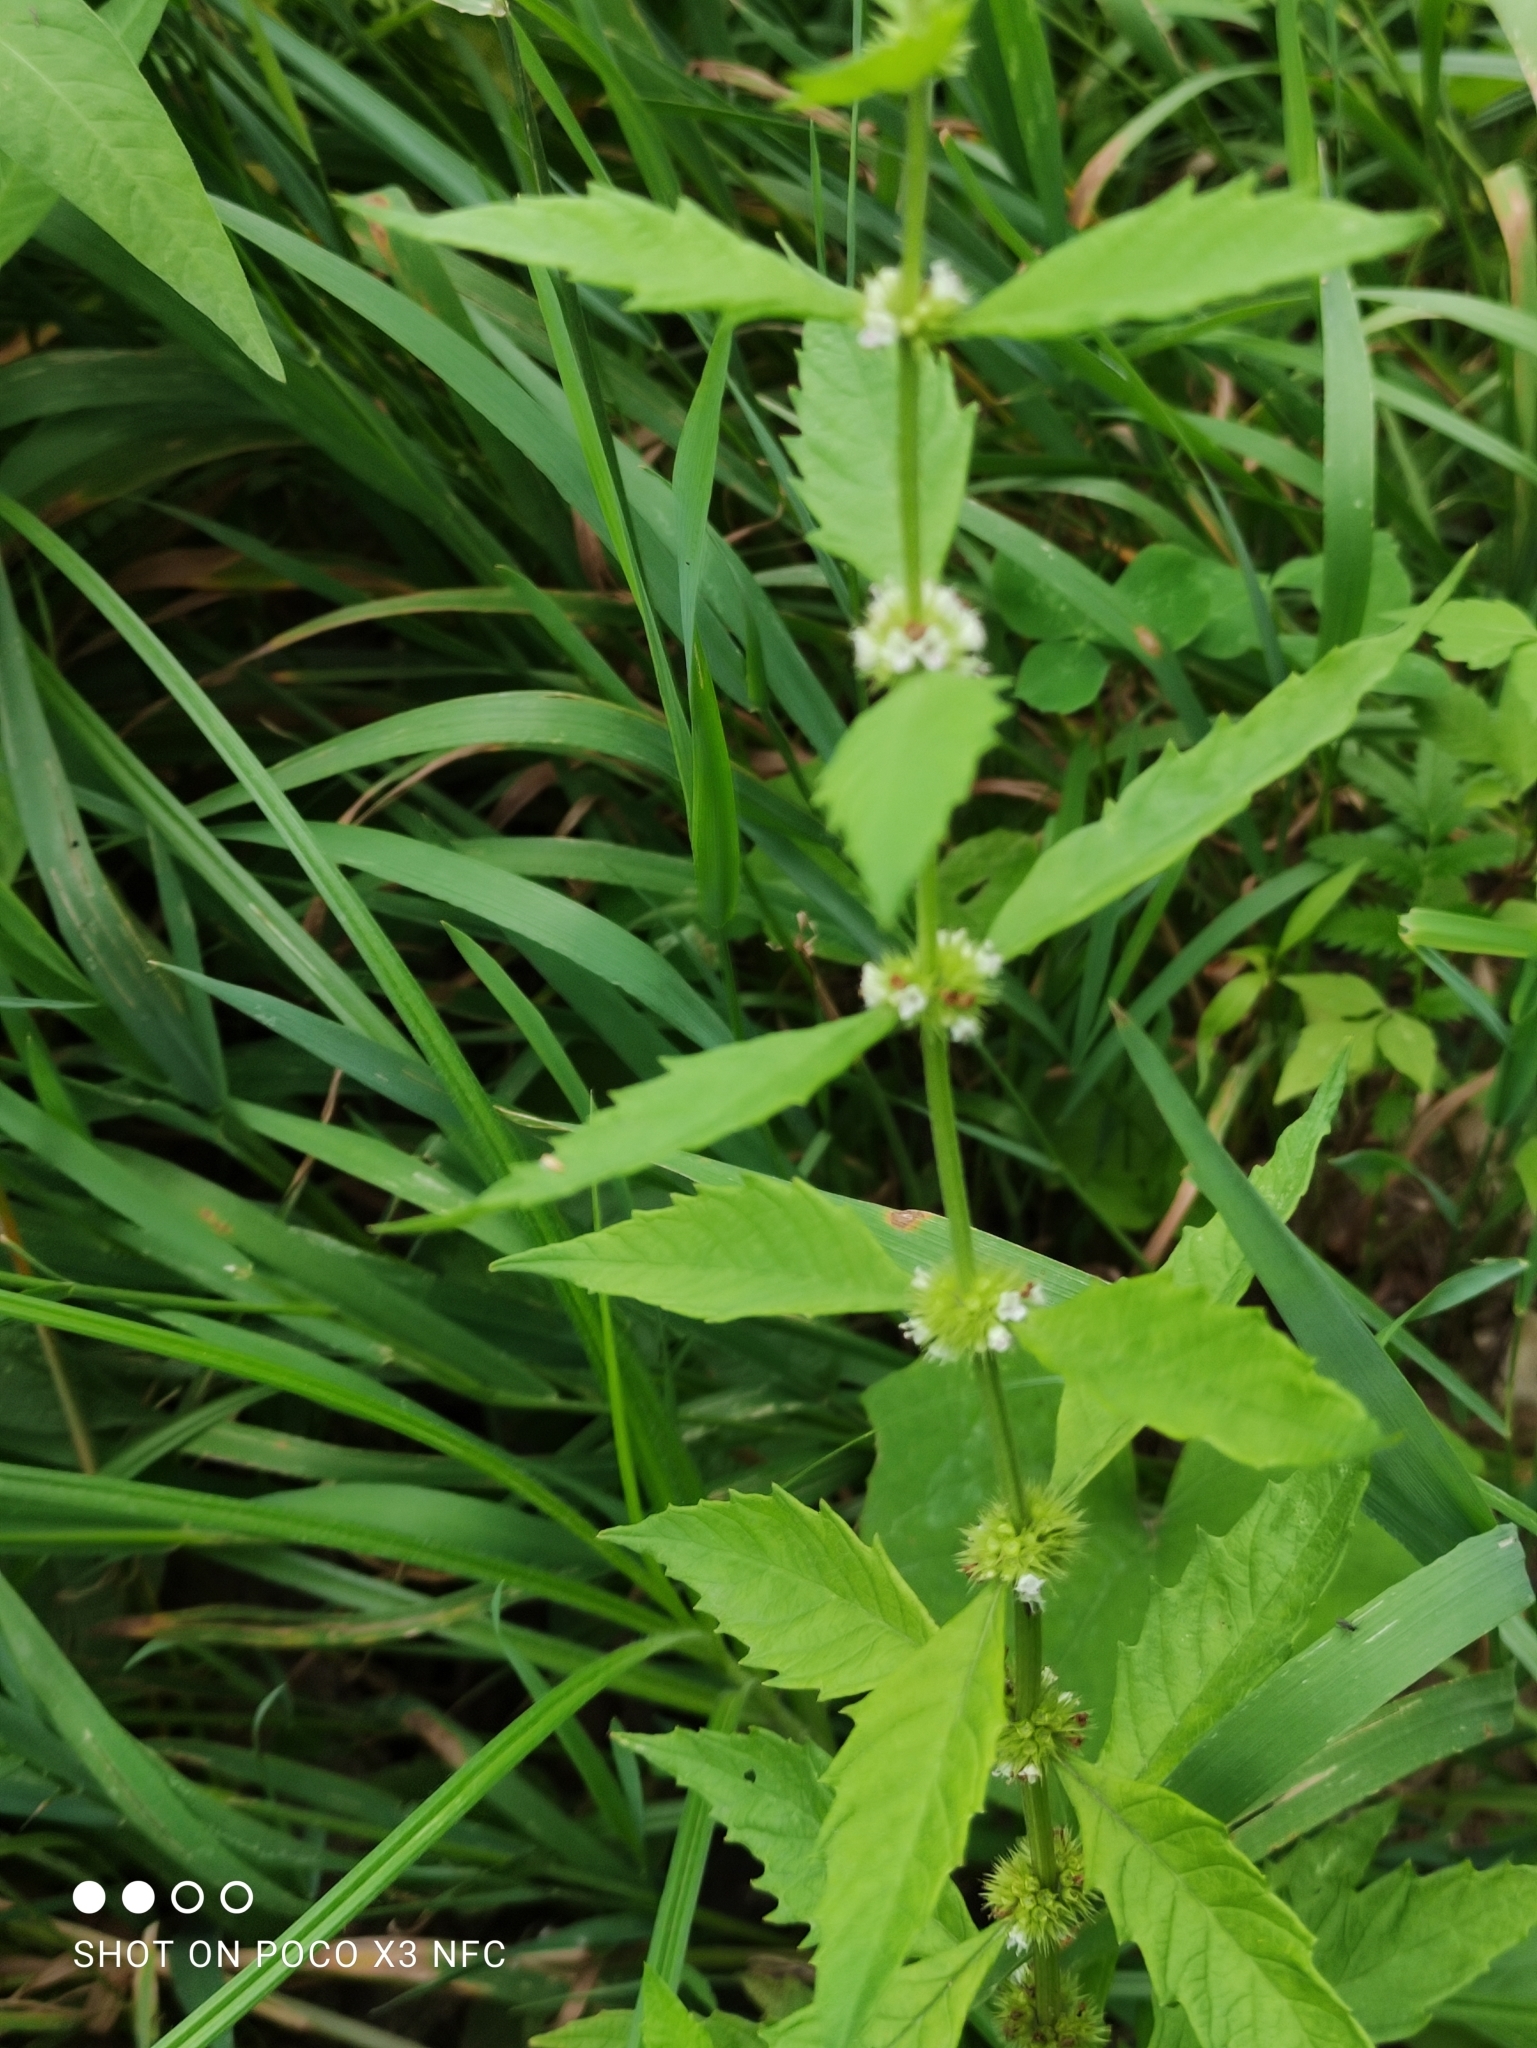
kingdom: Plantae
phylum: Tracheophyta
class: Magnoliopsida
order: Lamiales
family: Lamiaceae
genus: Lycopus
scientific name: Lycopus europaeus
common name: European bugleweed
